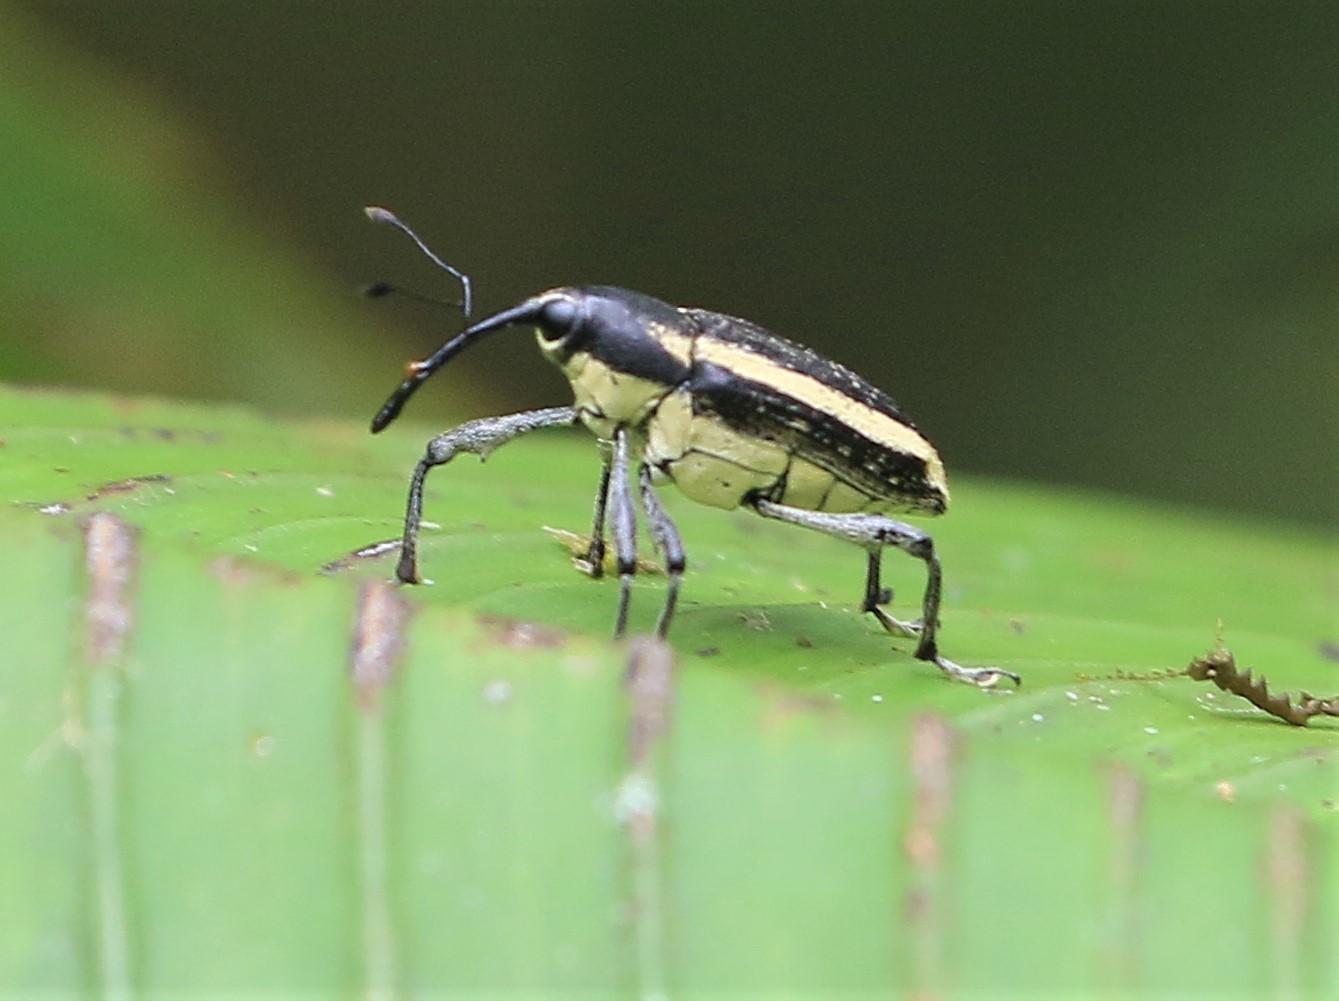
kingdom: Animalia
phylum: Arthropoda
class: Insecta
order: Coleoptera
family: Curculionidae
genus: Ambates
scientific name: Ambates speciosus
